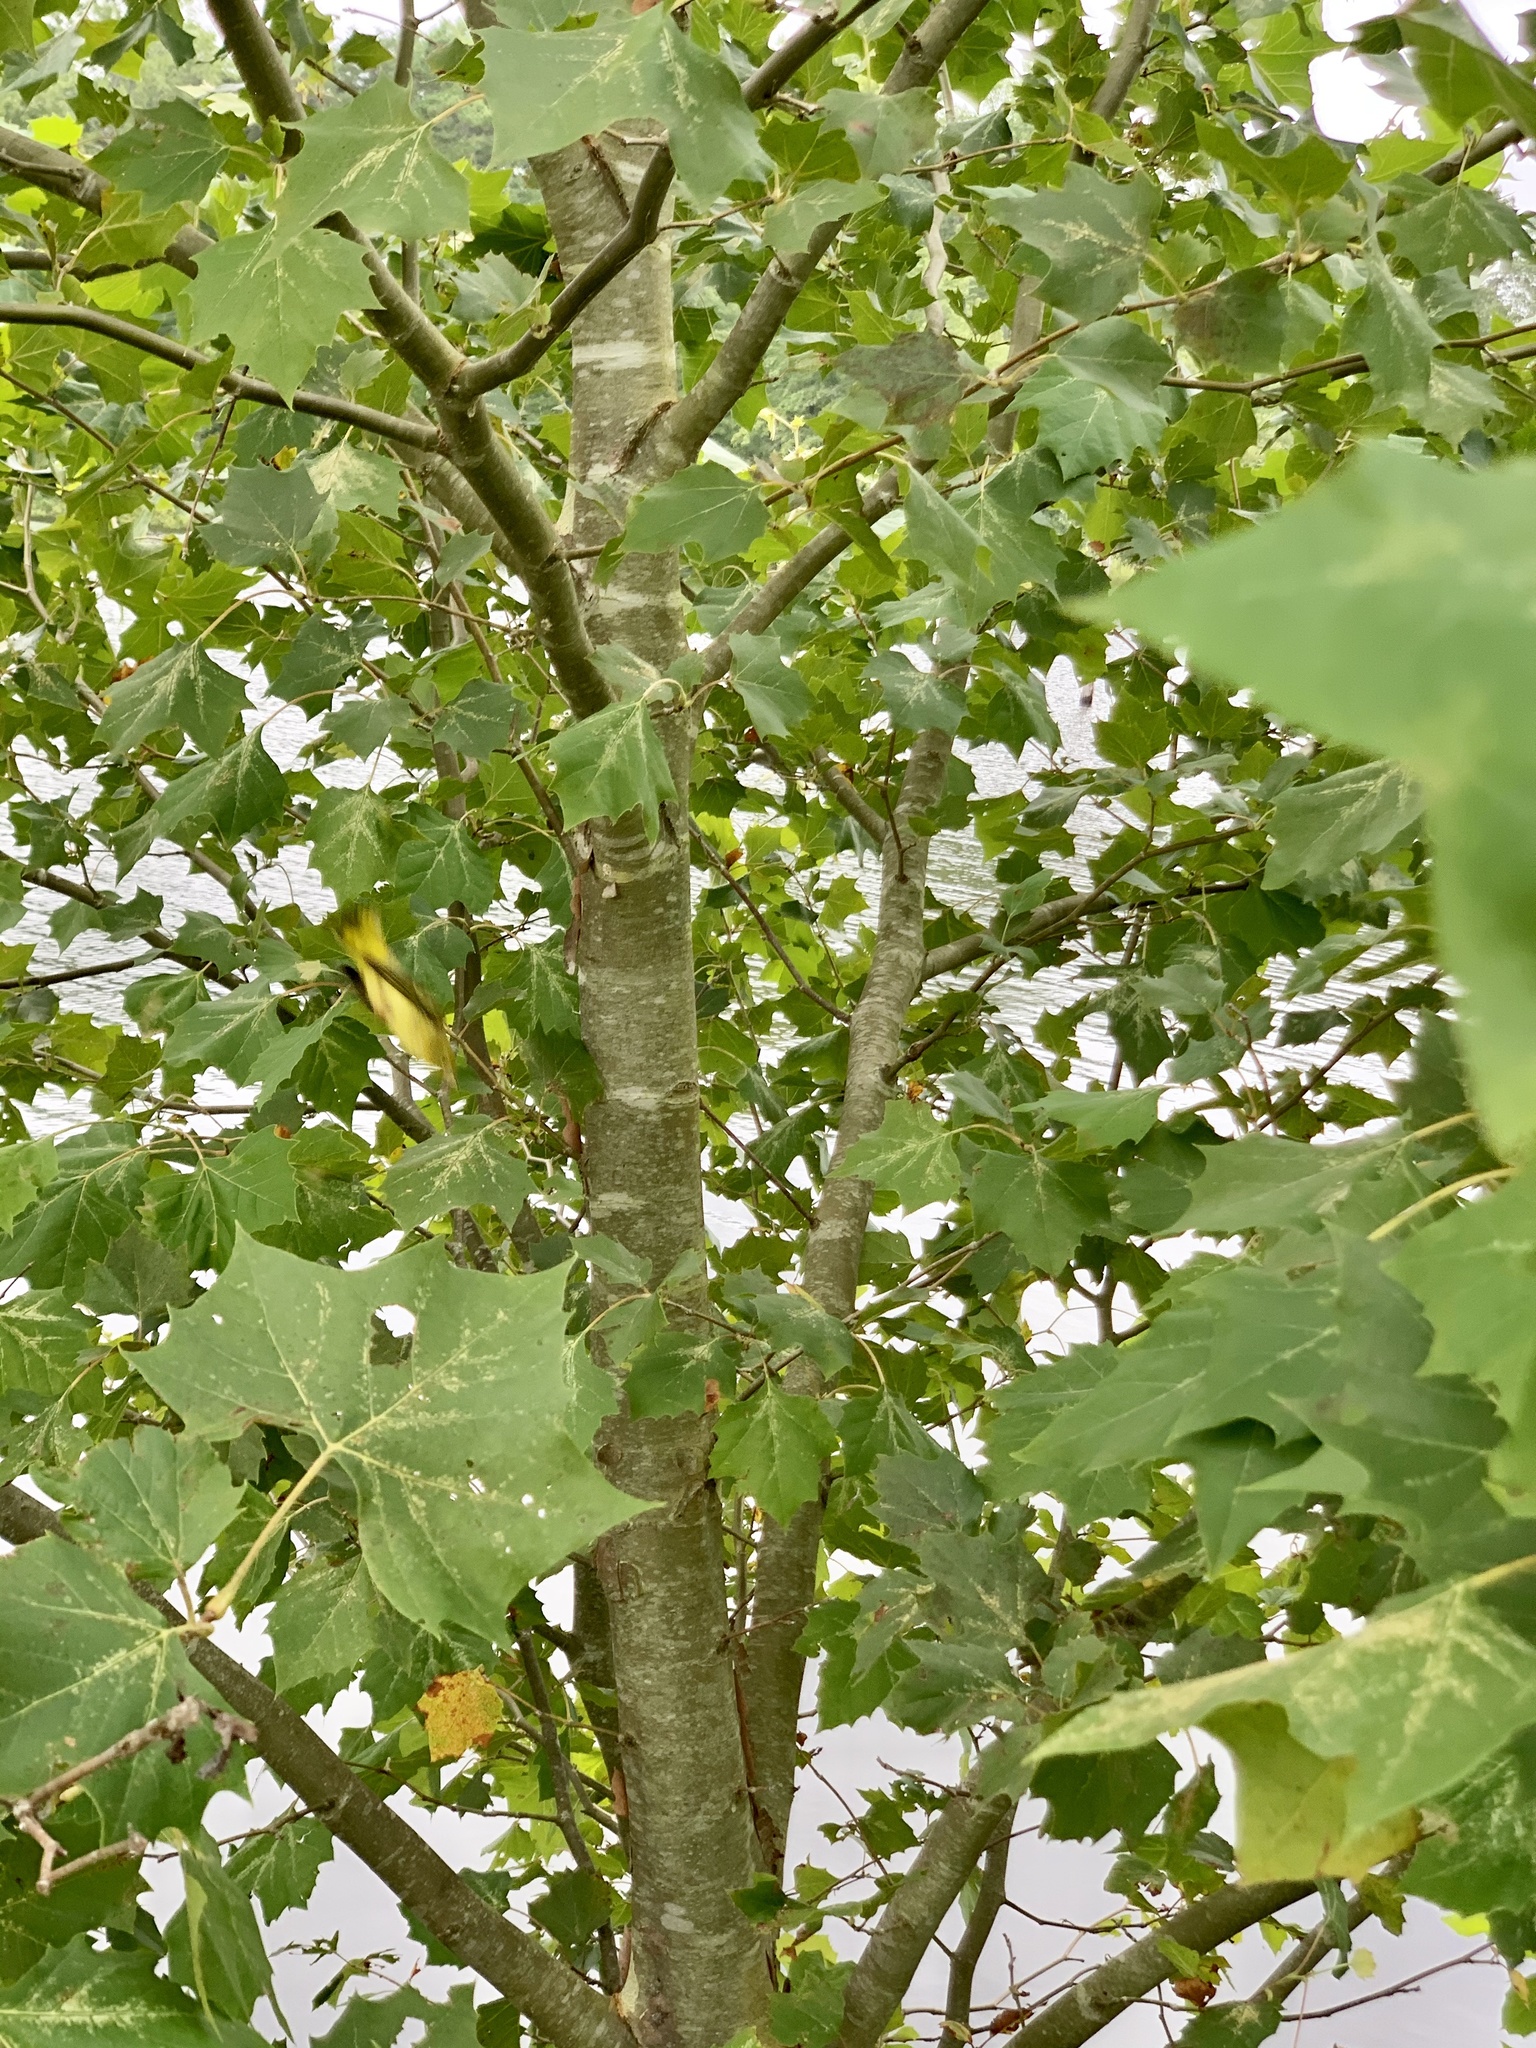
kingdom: Plantae
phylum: Tracheophyta
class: Magnoliopsida
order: Proteales
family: Platanaceae
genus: Platanus
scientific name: Platanus occidentalis
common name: American sycamore
